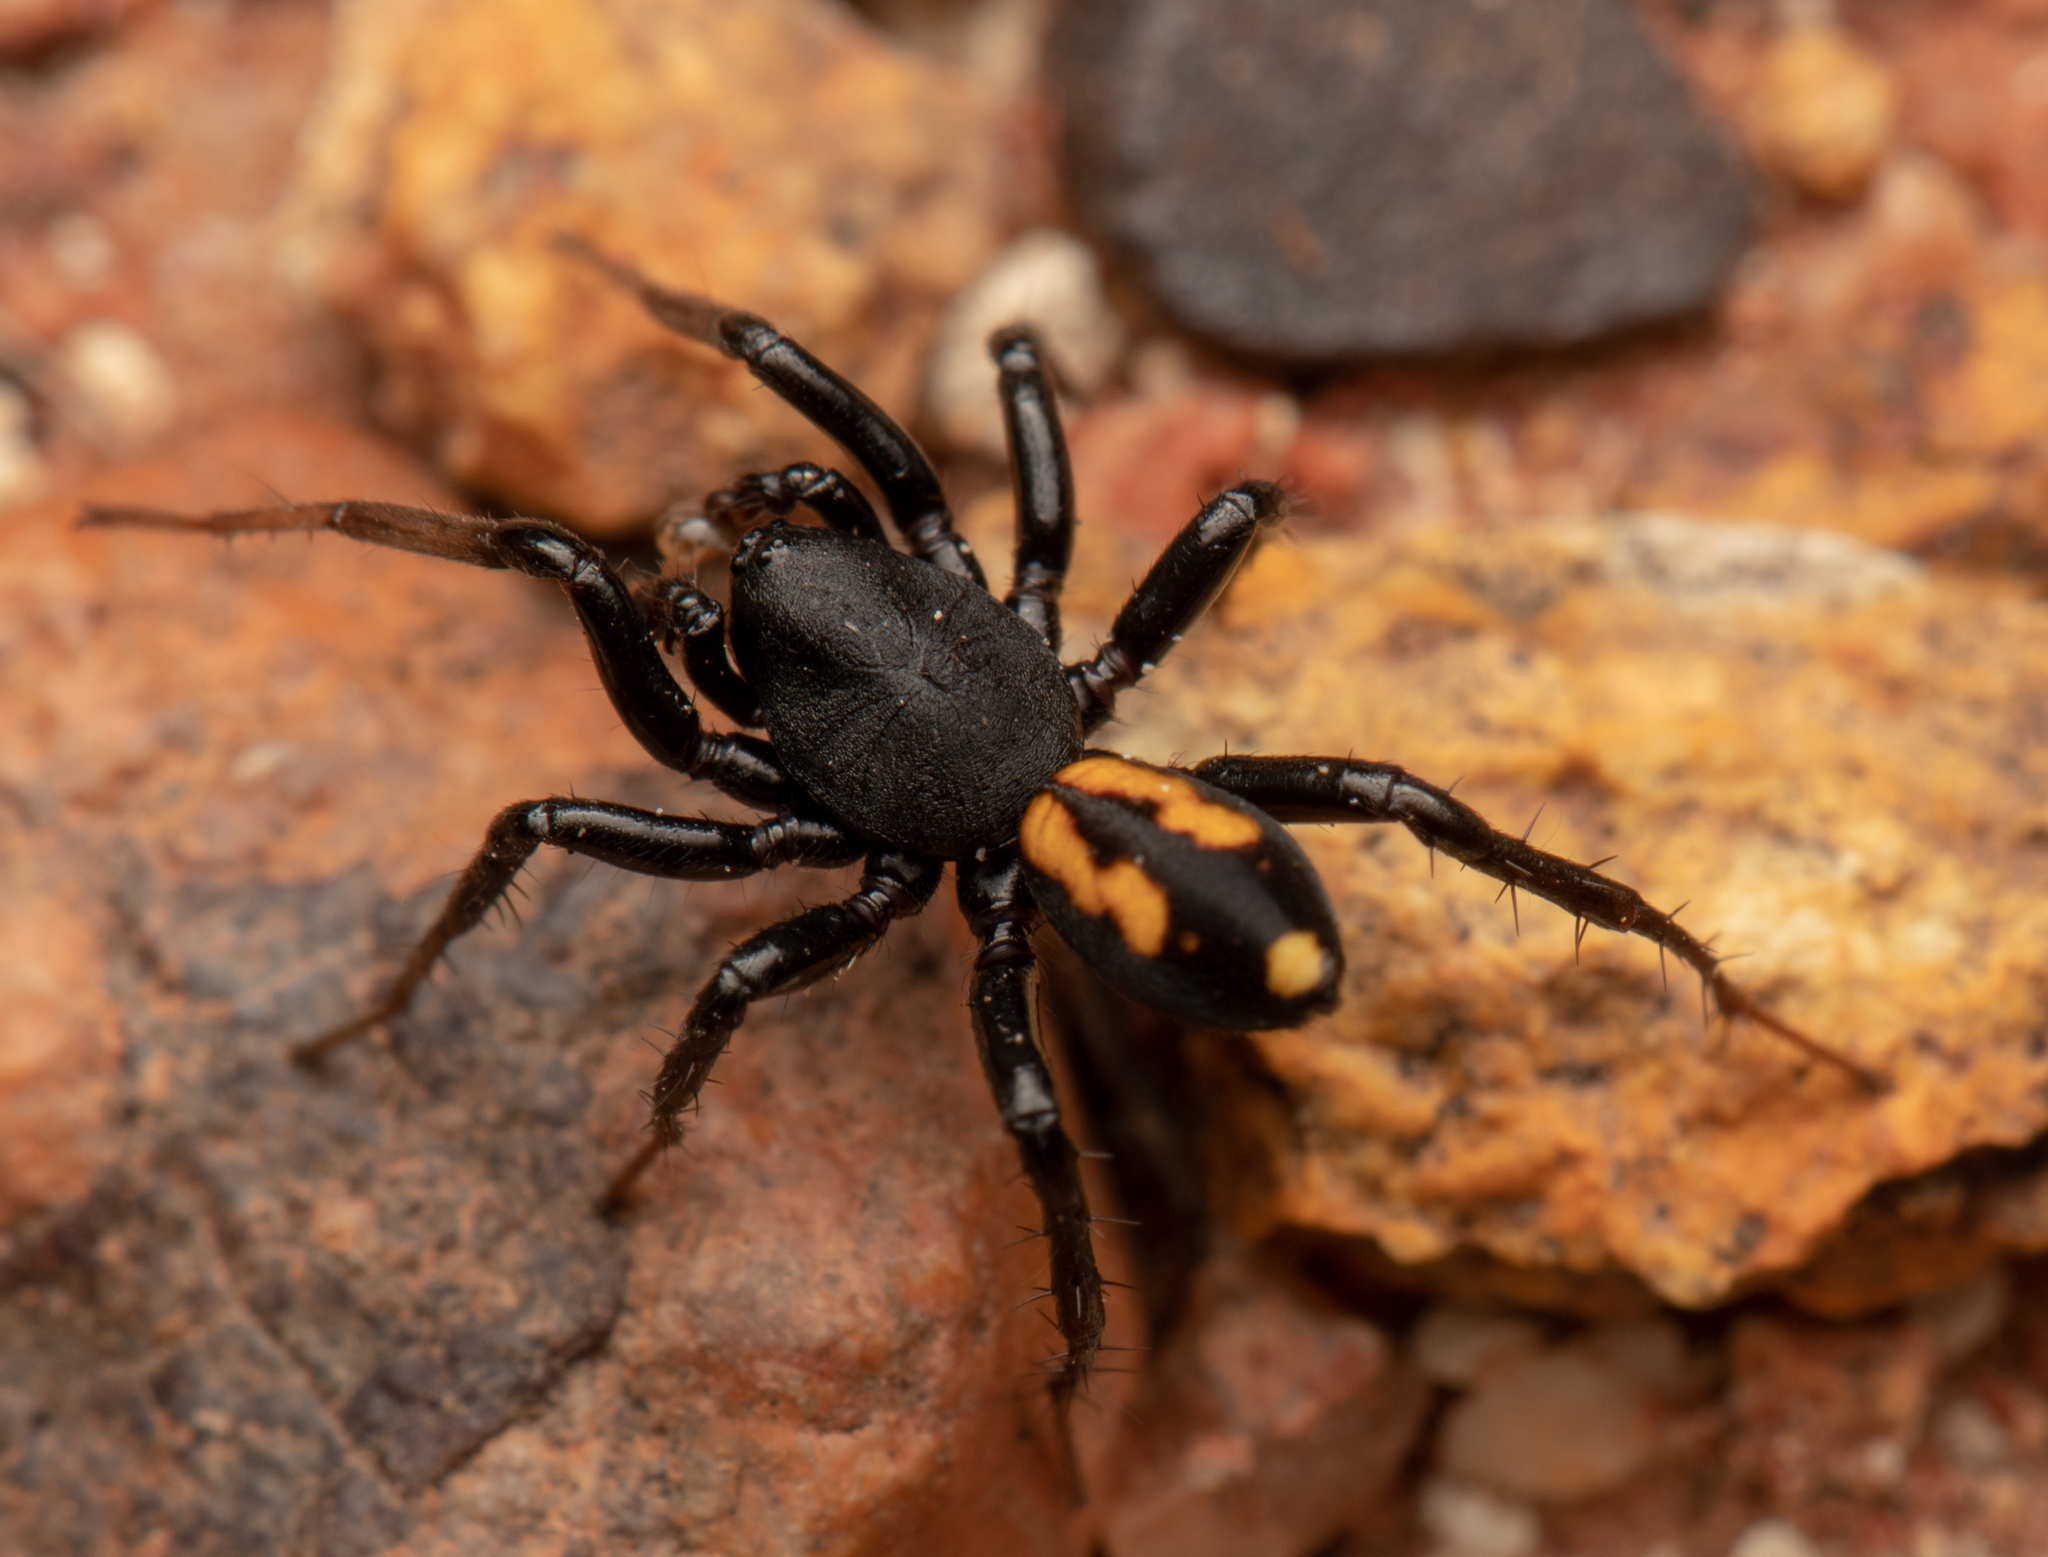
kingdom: Animalia
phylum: Arthropoda
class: Arachnida
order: Araneae
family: Zodariidae
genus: Notasteron
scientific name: Notasteron lawlessi
